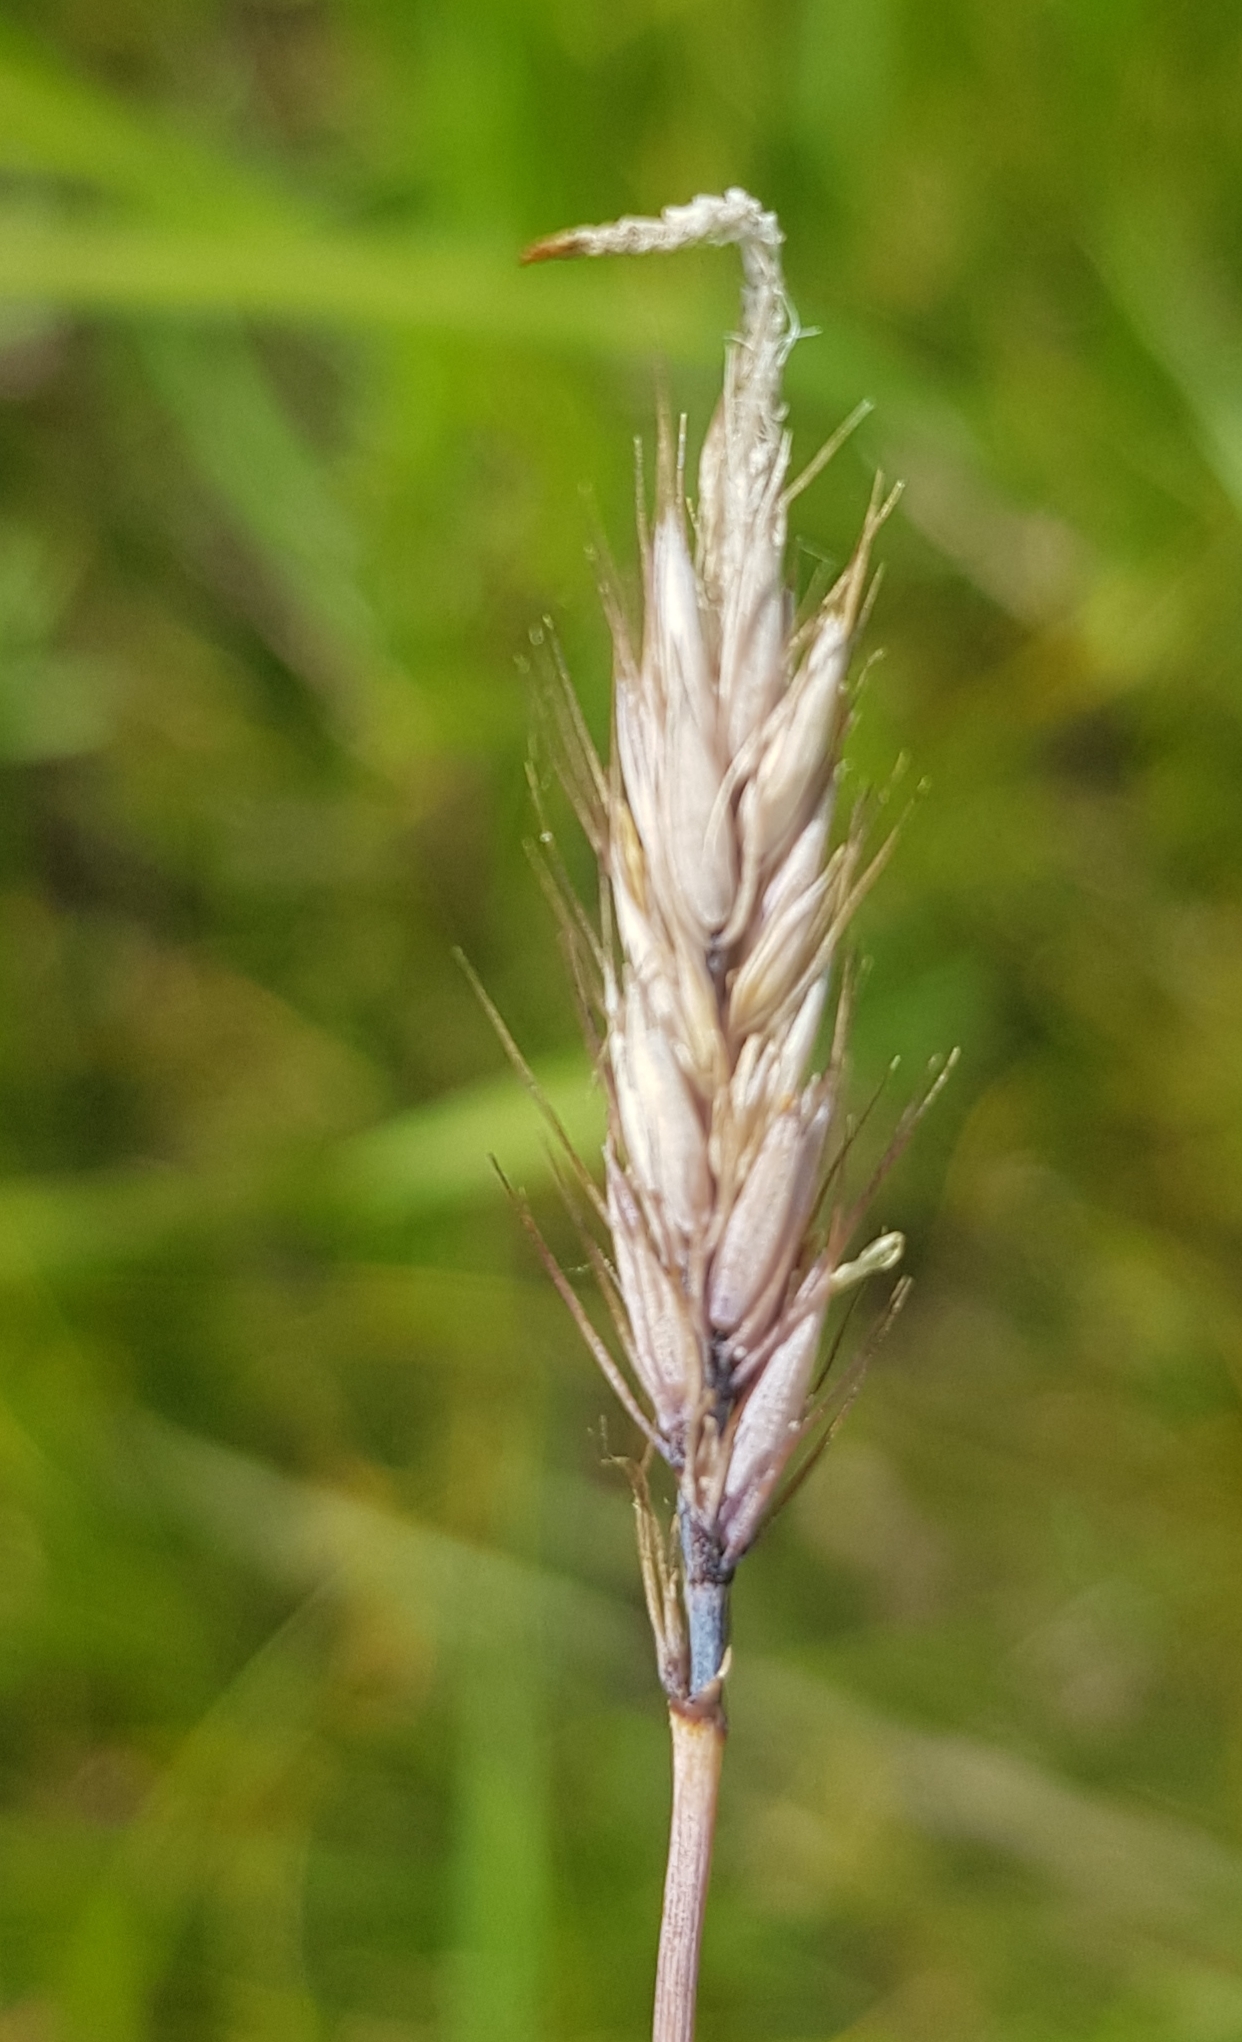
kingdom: Plantae
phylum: Tracheophyta
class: Liliopsida
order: Poales
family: Poaceae
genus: Cenchrus
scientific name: Cenchrus flaccidus
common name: Flaccid grass
